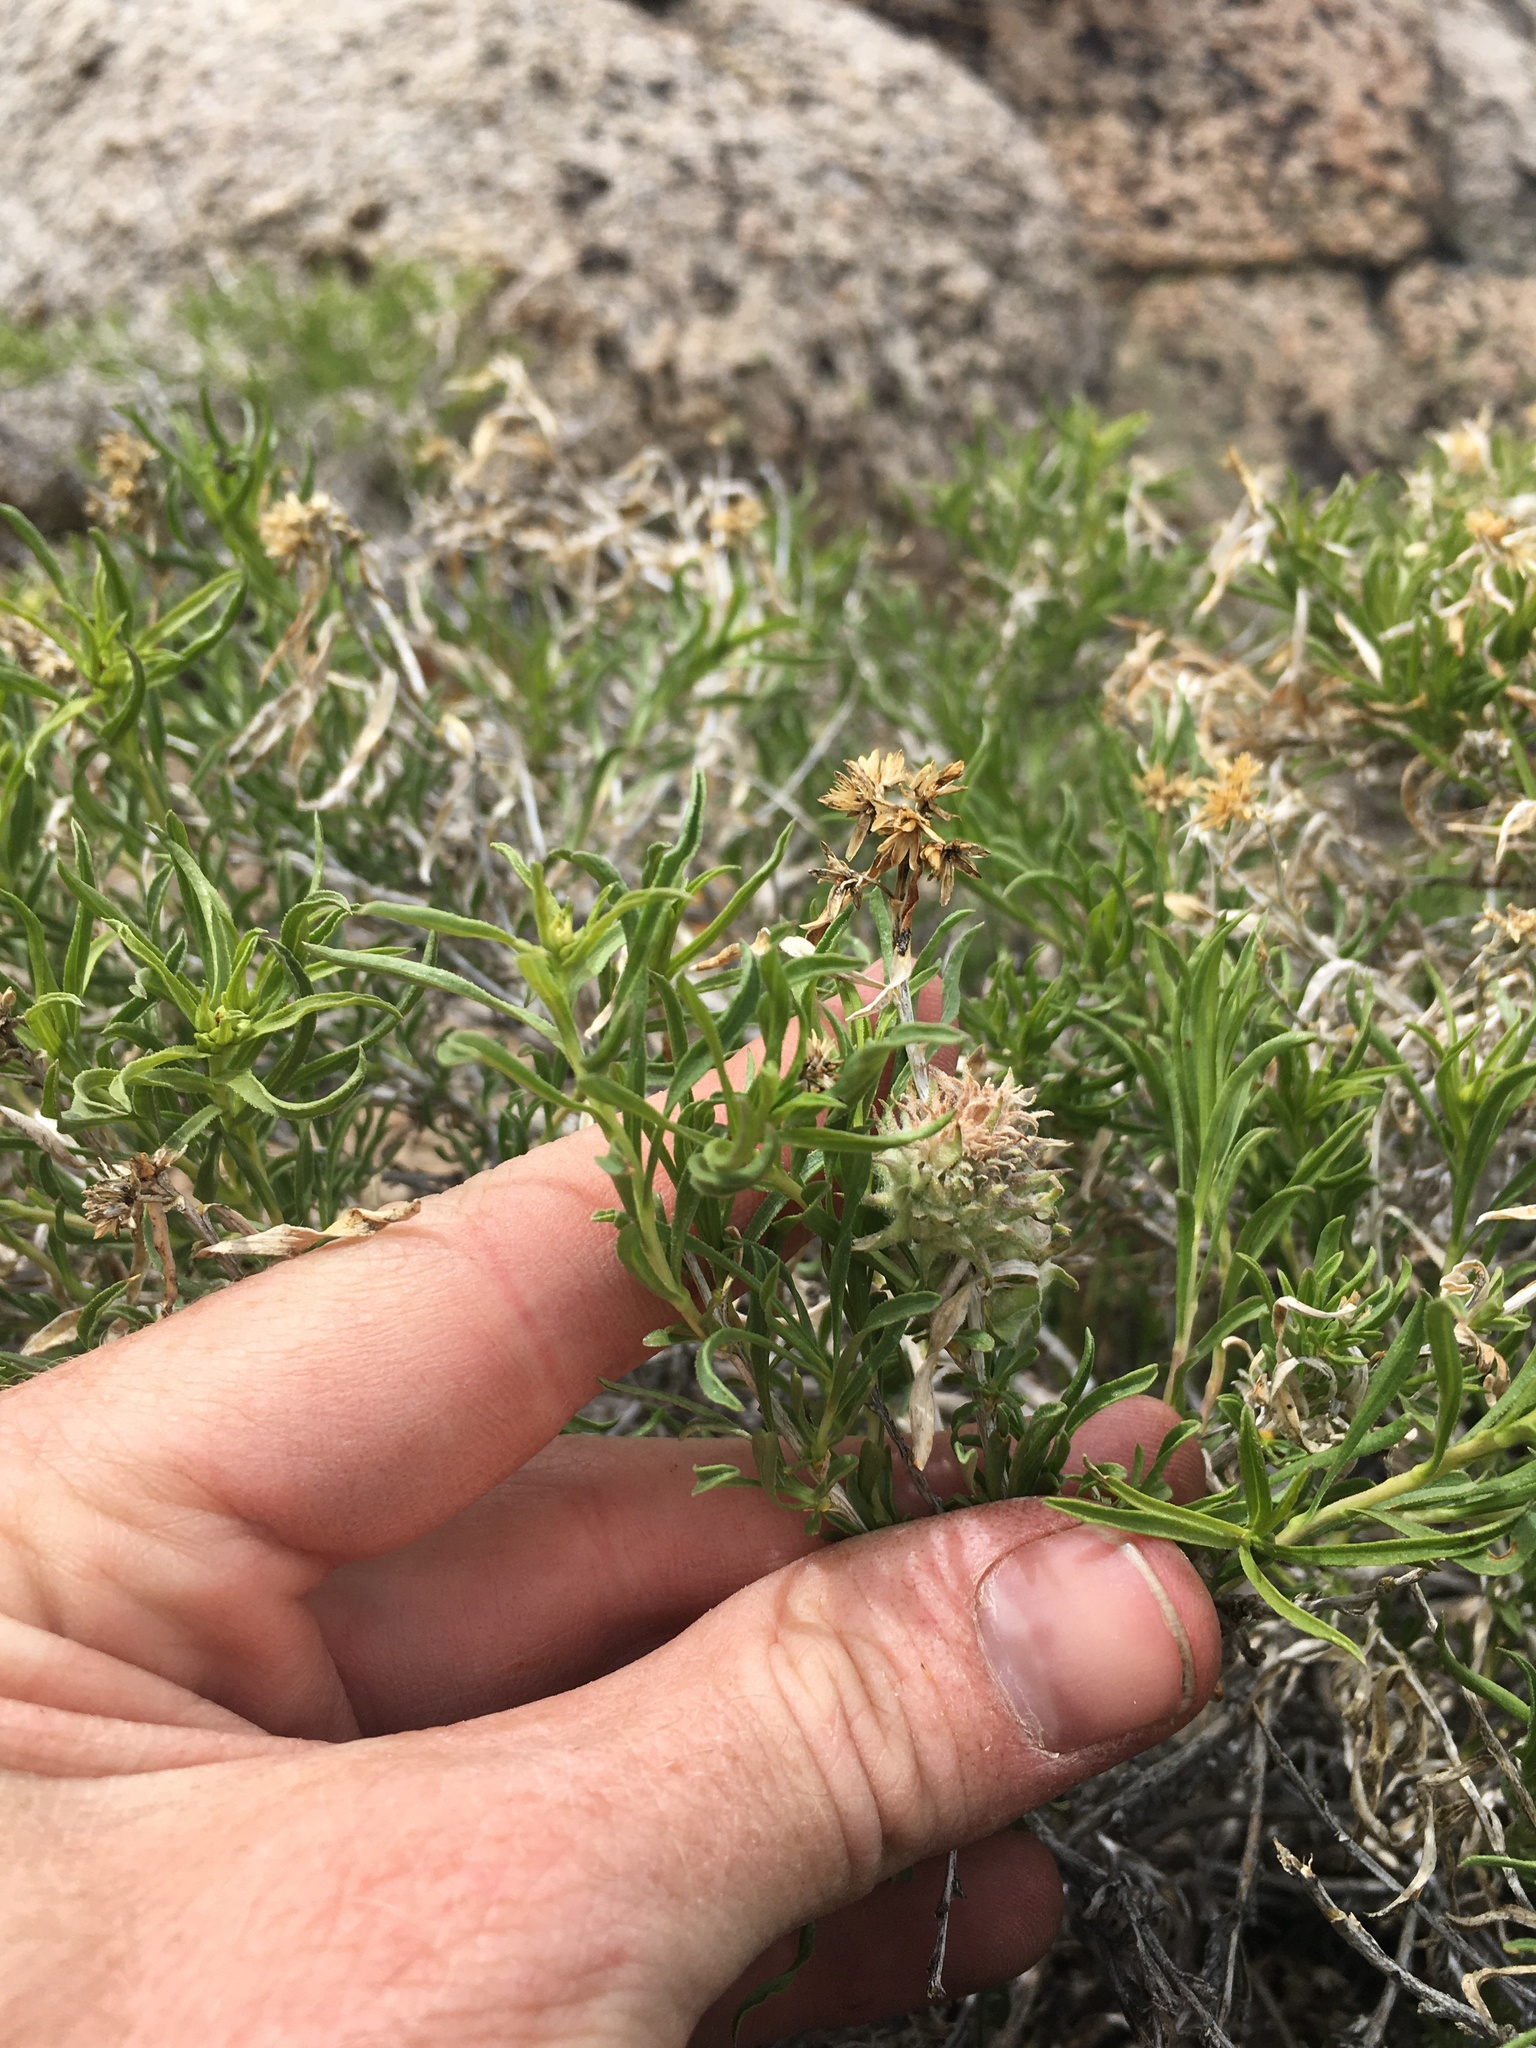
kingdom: Plantae
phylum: Tracheophyta
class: Magnoliopsida
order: Asterales
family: Asteraceae
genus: Chrysothamnus
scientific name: Chrysothamnus viscidiflorus
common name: Yellow rabbitbrush
